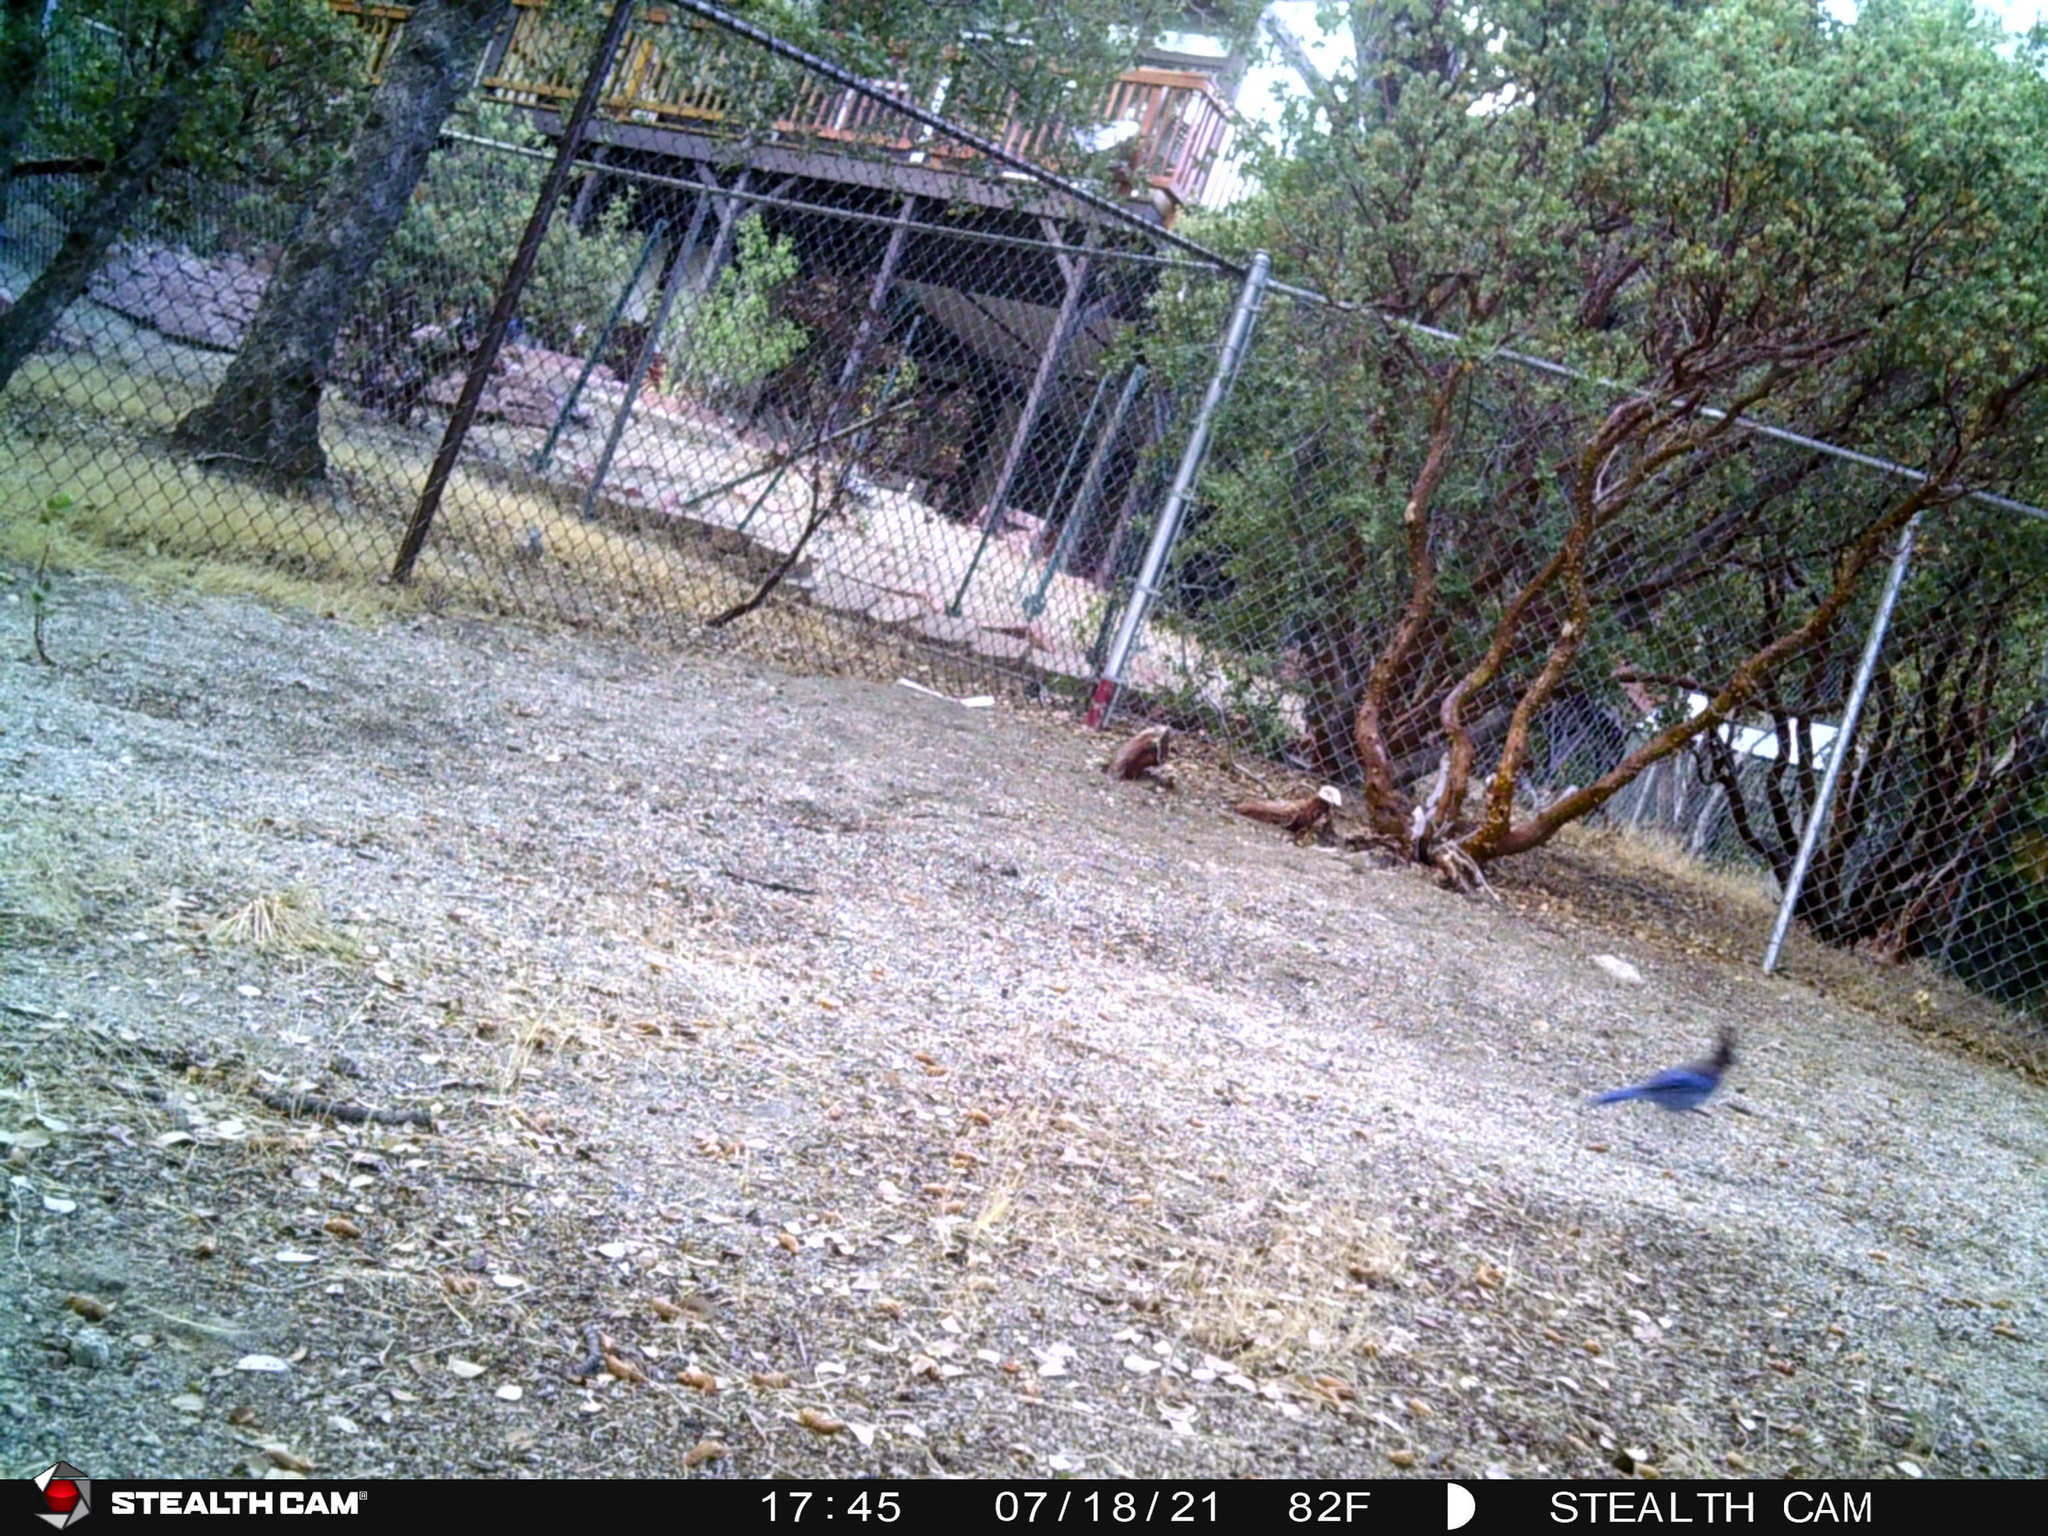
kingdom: Animalia
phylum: Chordata
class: Aves
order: Passeriformes
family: Corvidae
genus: Cyanocitta
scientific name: Cyanocitta stelleri
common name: Steller's jay
